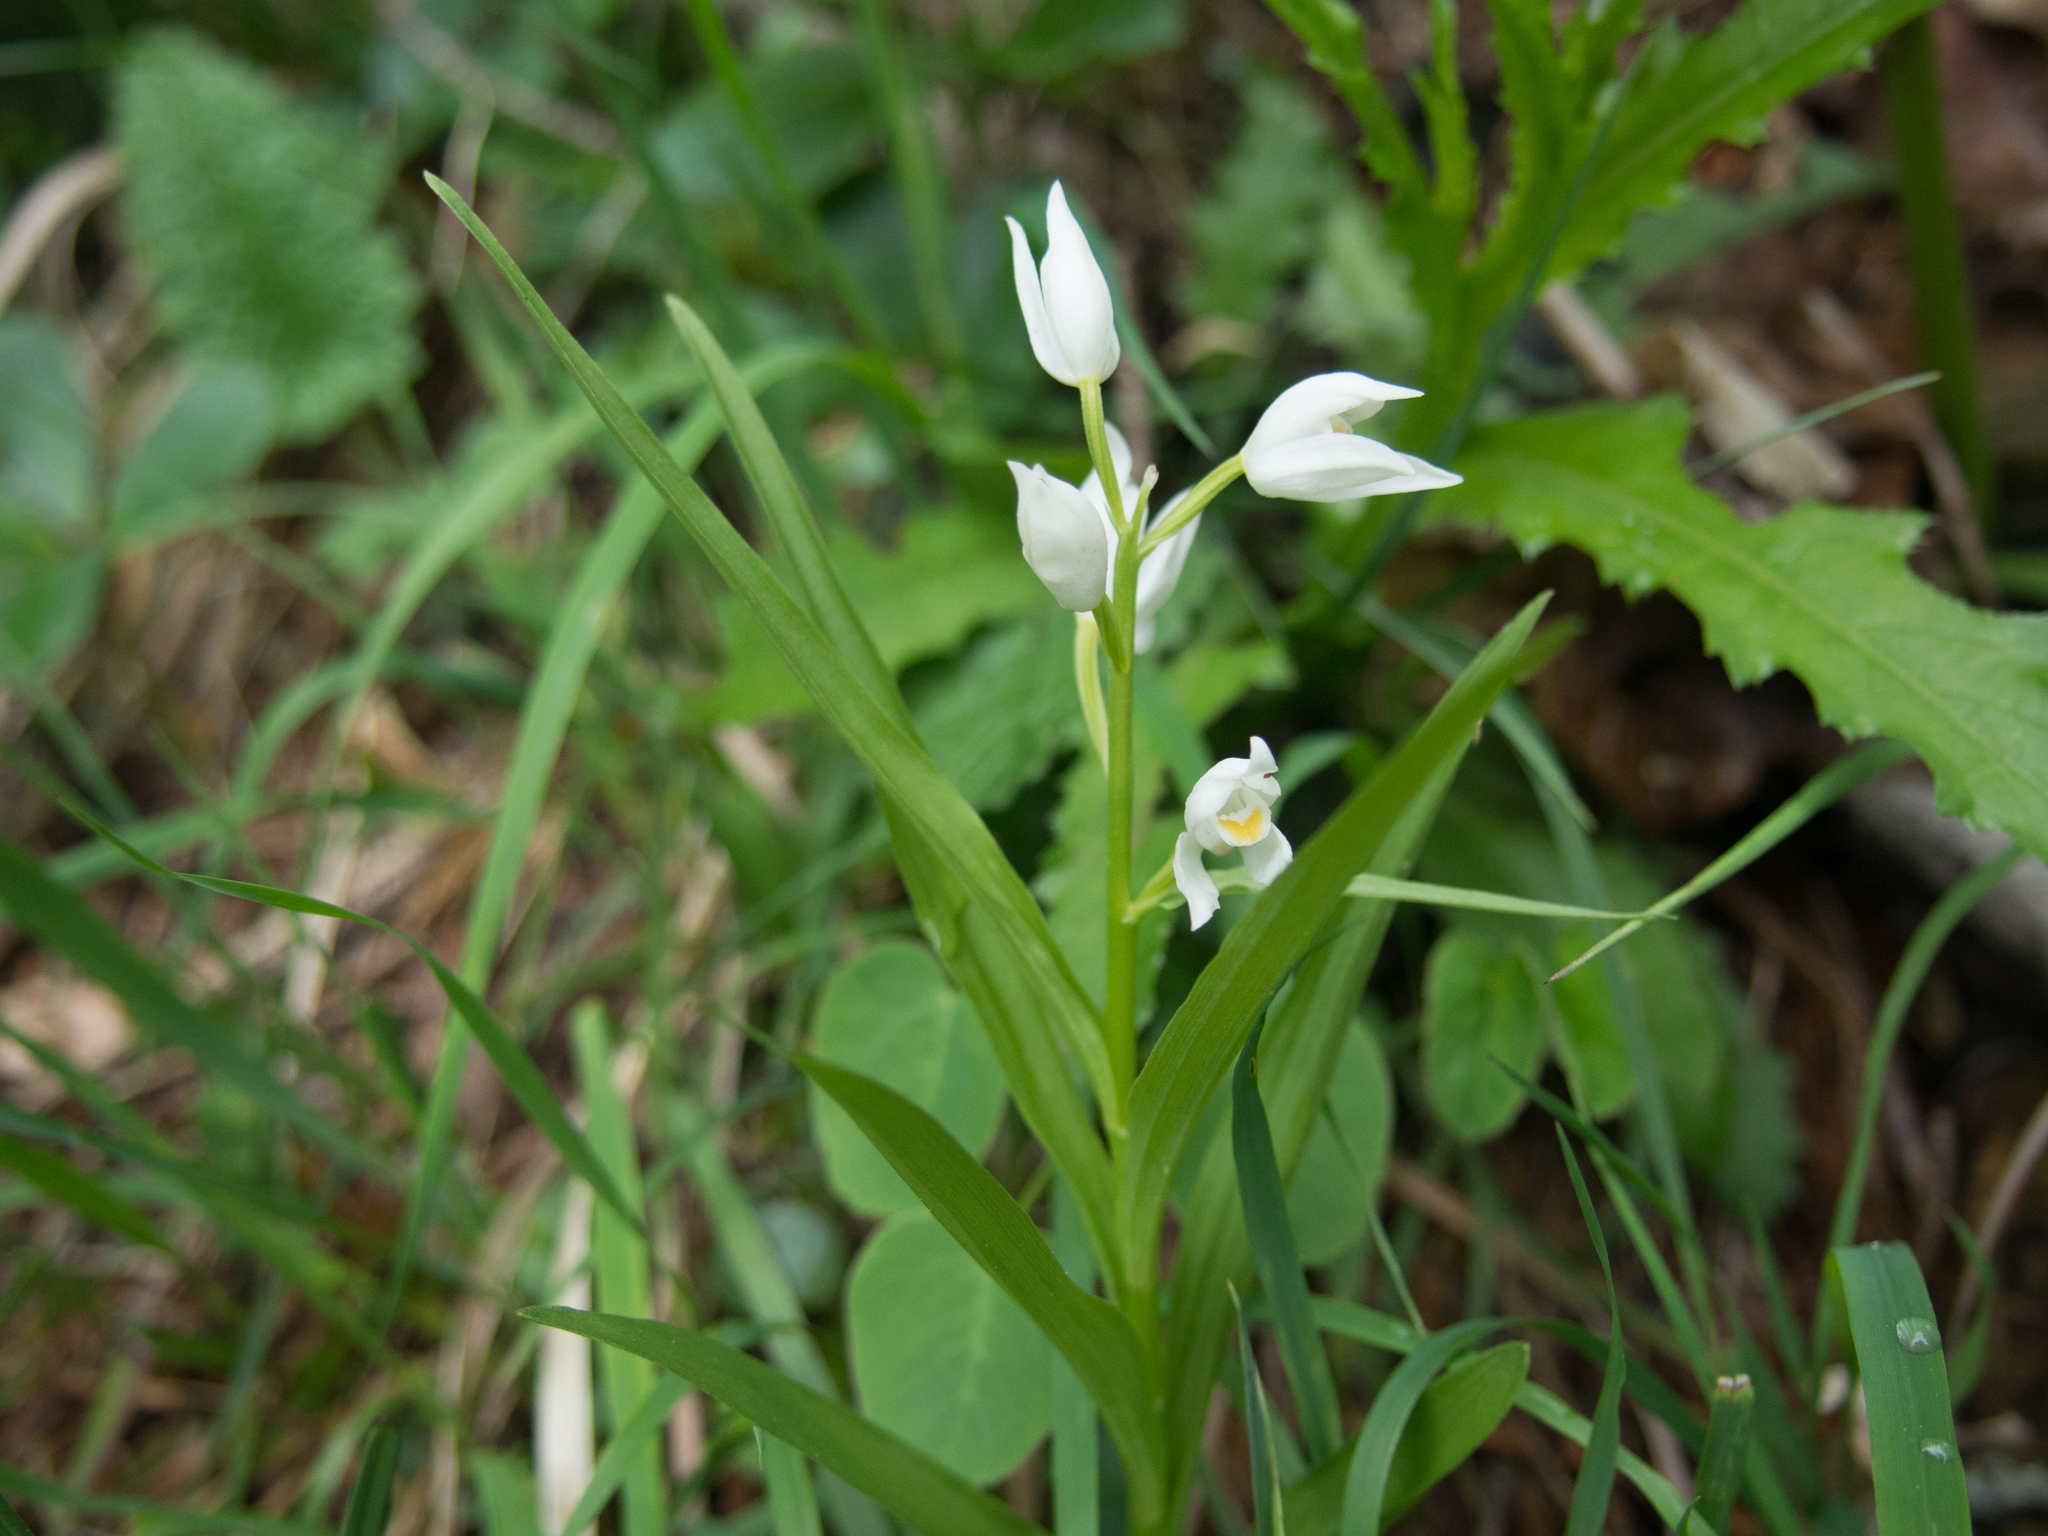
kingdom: Plantae
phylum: Tracheophyta
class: Liliopsida
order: Asparagales
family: Orchidaceae
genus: Cephalanthera
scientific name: Cephalanthera longifolia
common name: Narrow-leaved helleborine
